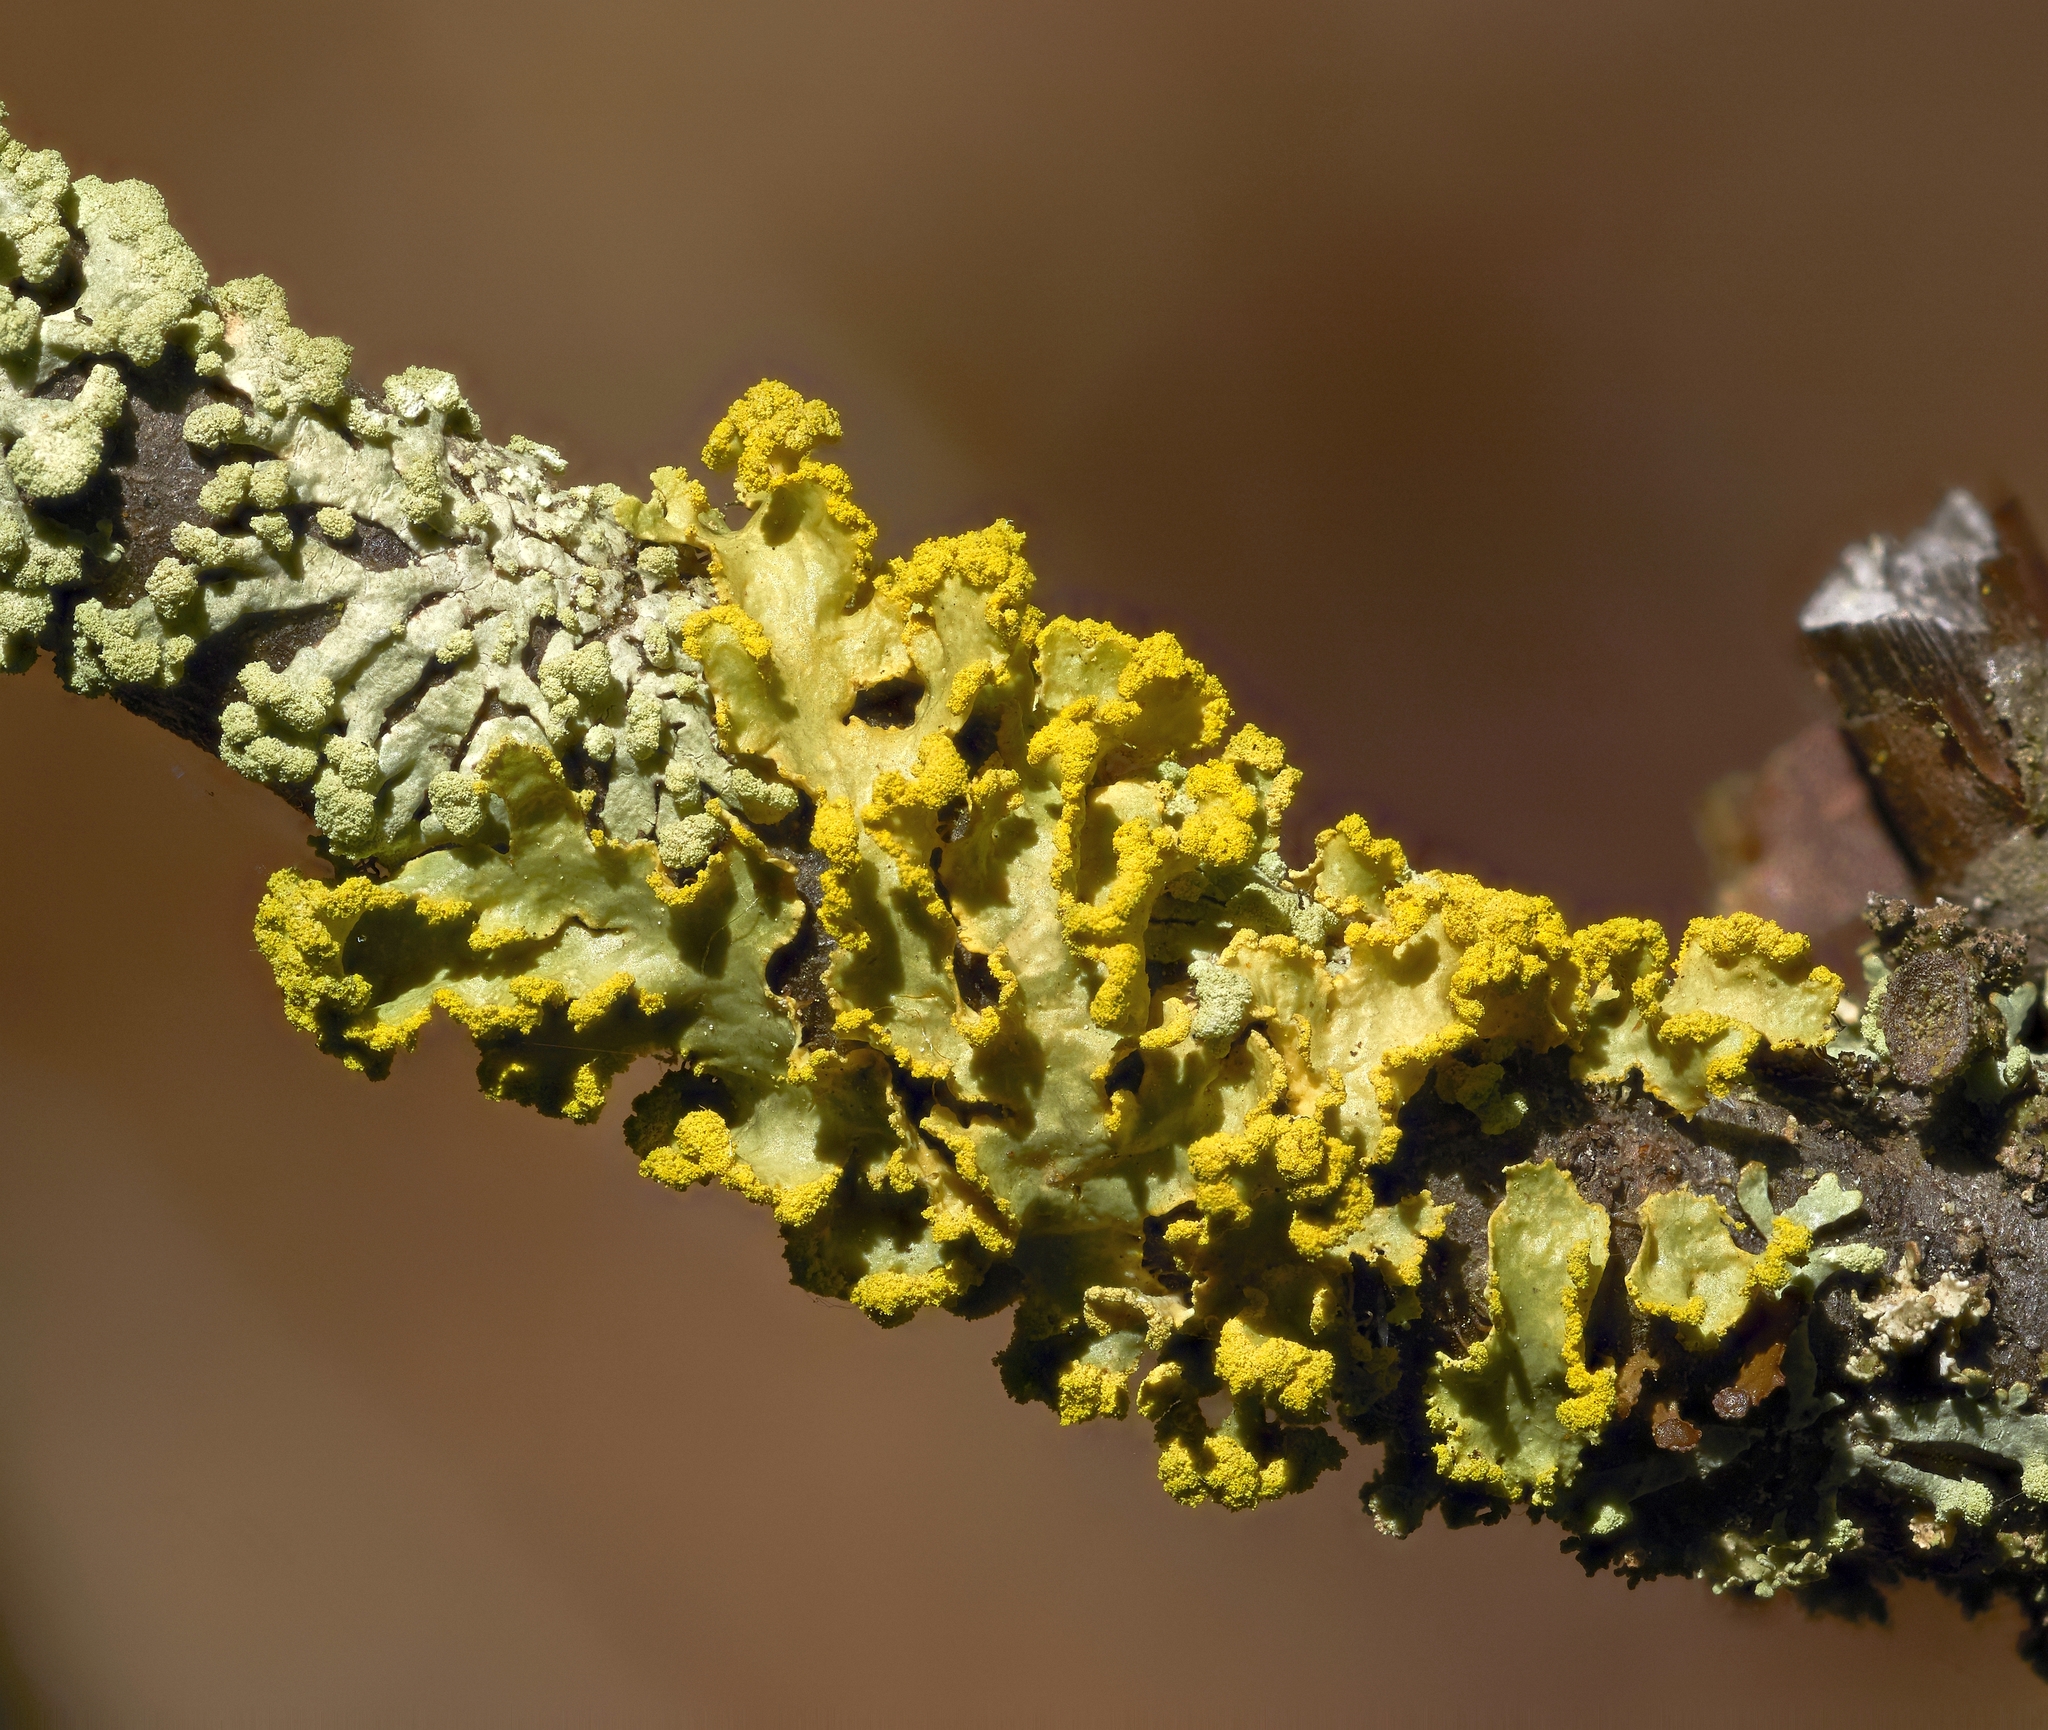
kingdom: Fungi
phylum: Ascomycota
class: Lecanoromycetes
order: Lecanorales
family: Parmeliaceae
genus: Vulpicida
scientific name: Vulpicida pinastri
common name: Powdered sunshine lichen
